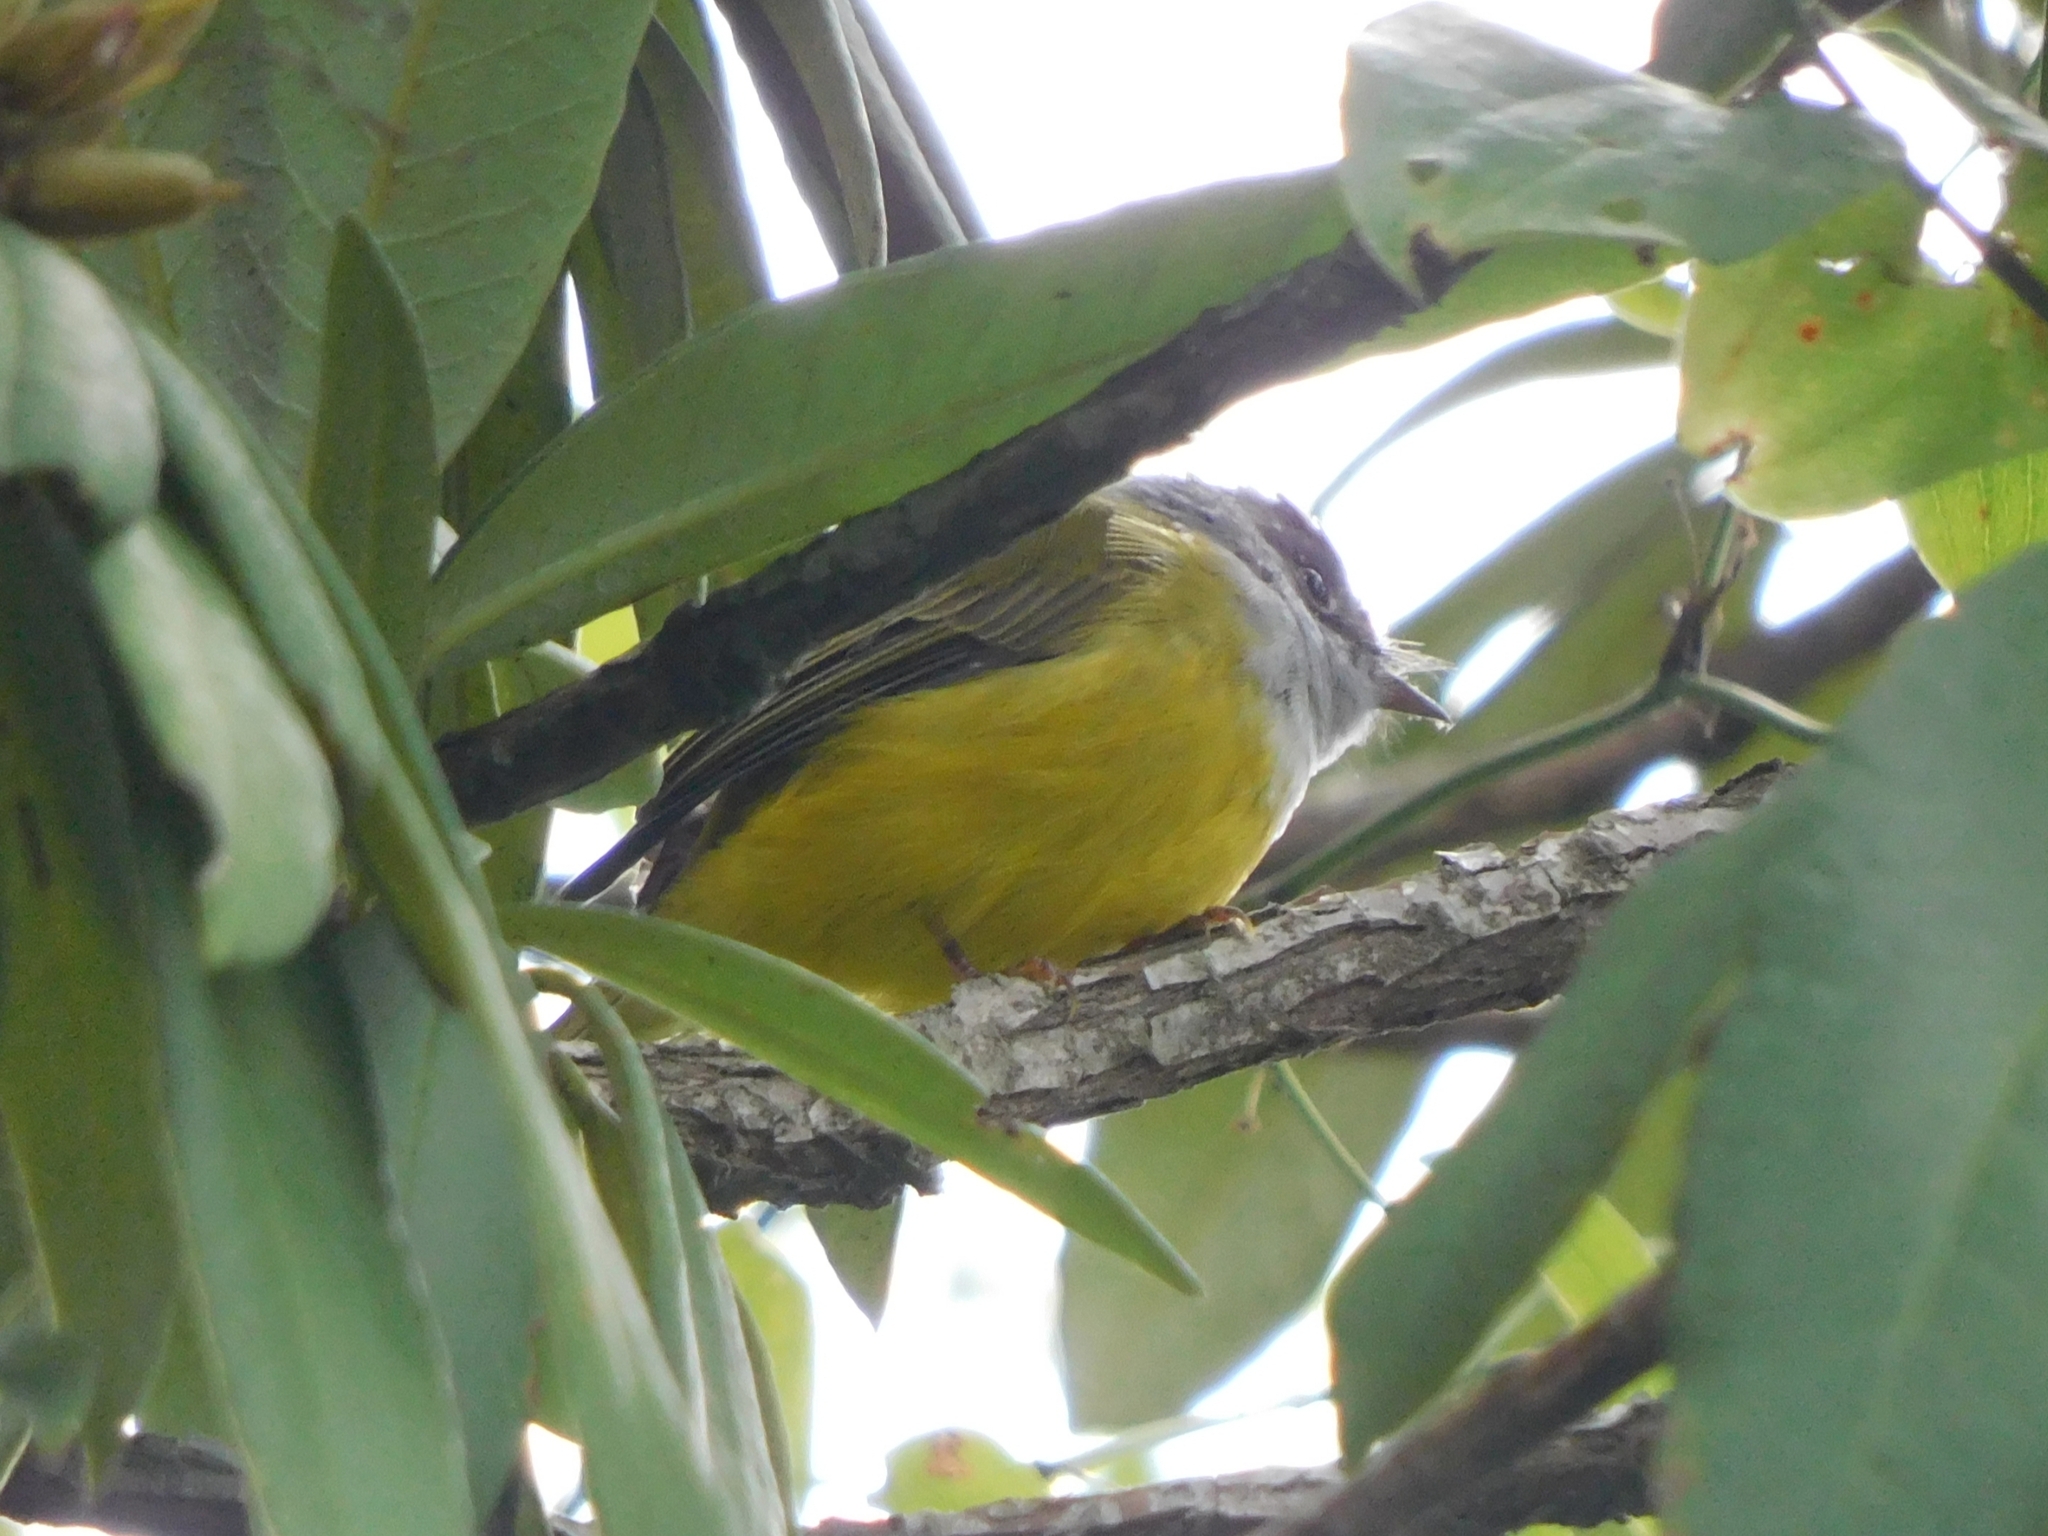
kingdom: Animalia
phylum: Chordata
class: Aves
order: Passeriformes
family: Stenostiridae
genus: Culicicapa
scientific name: Culicicapa ceylonensis
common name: Grey-headed canary-flycatcher
